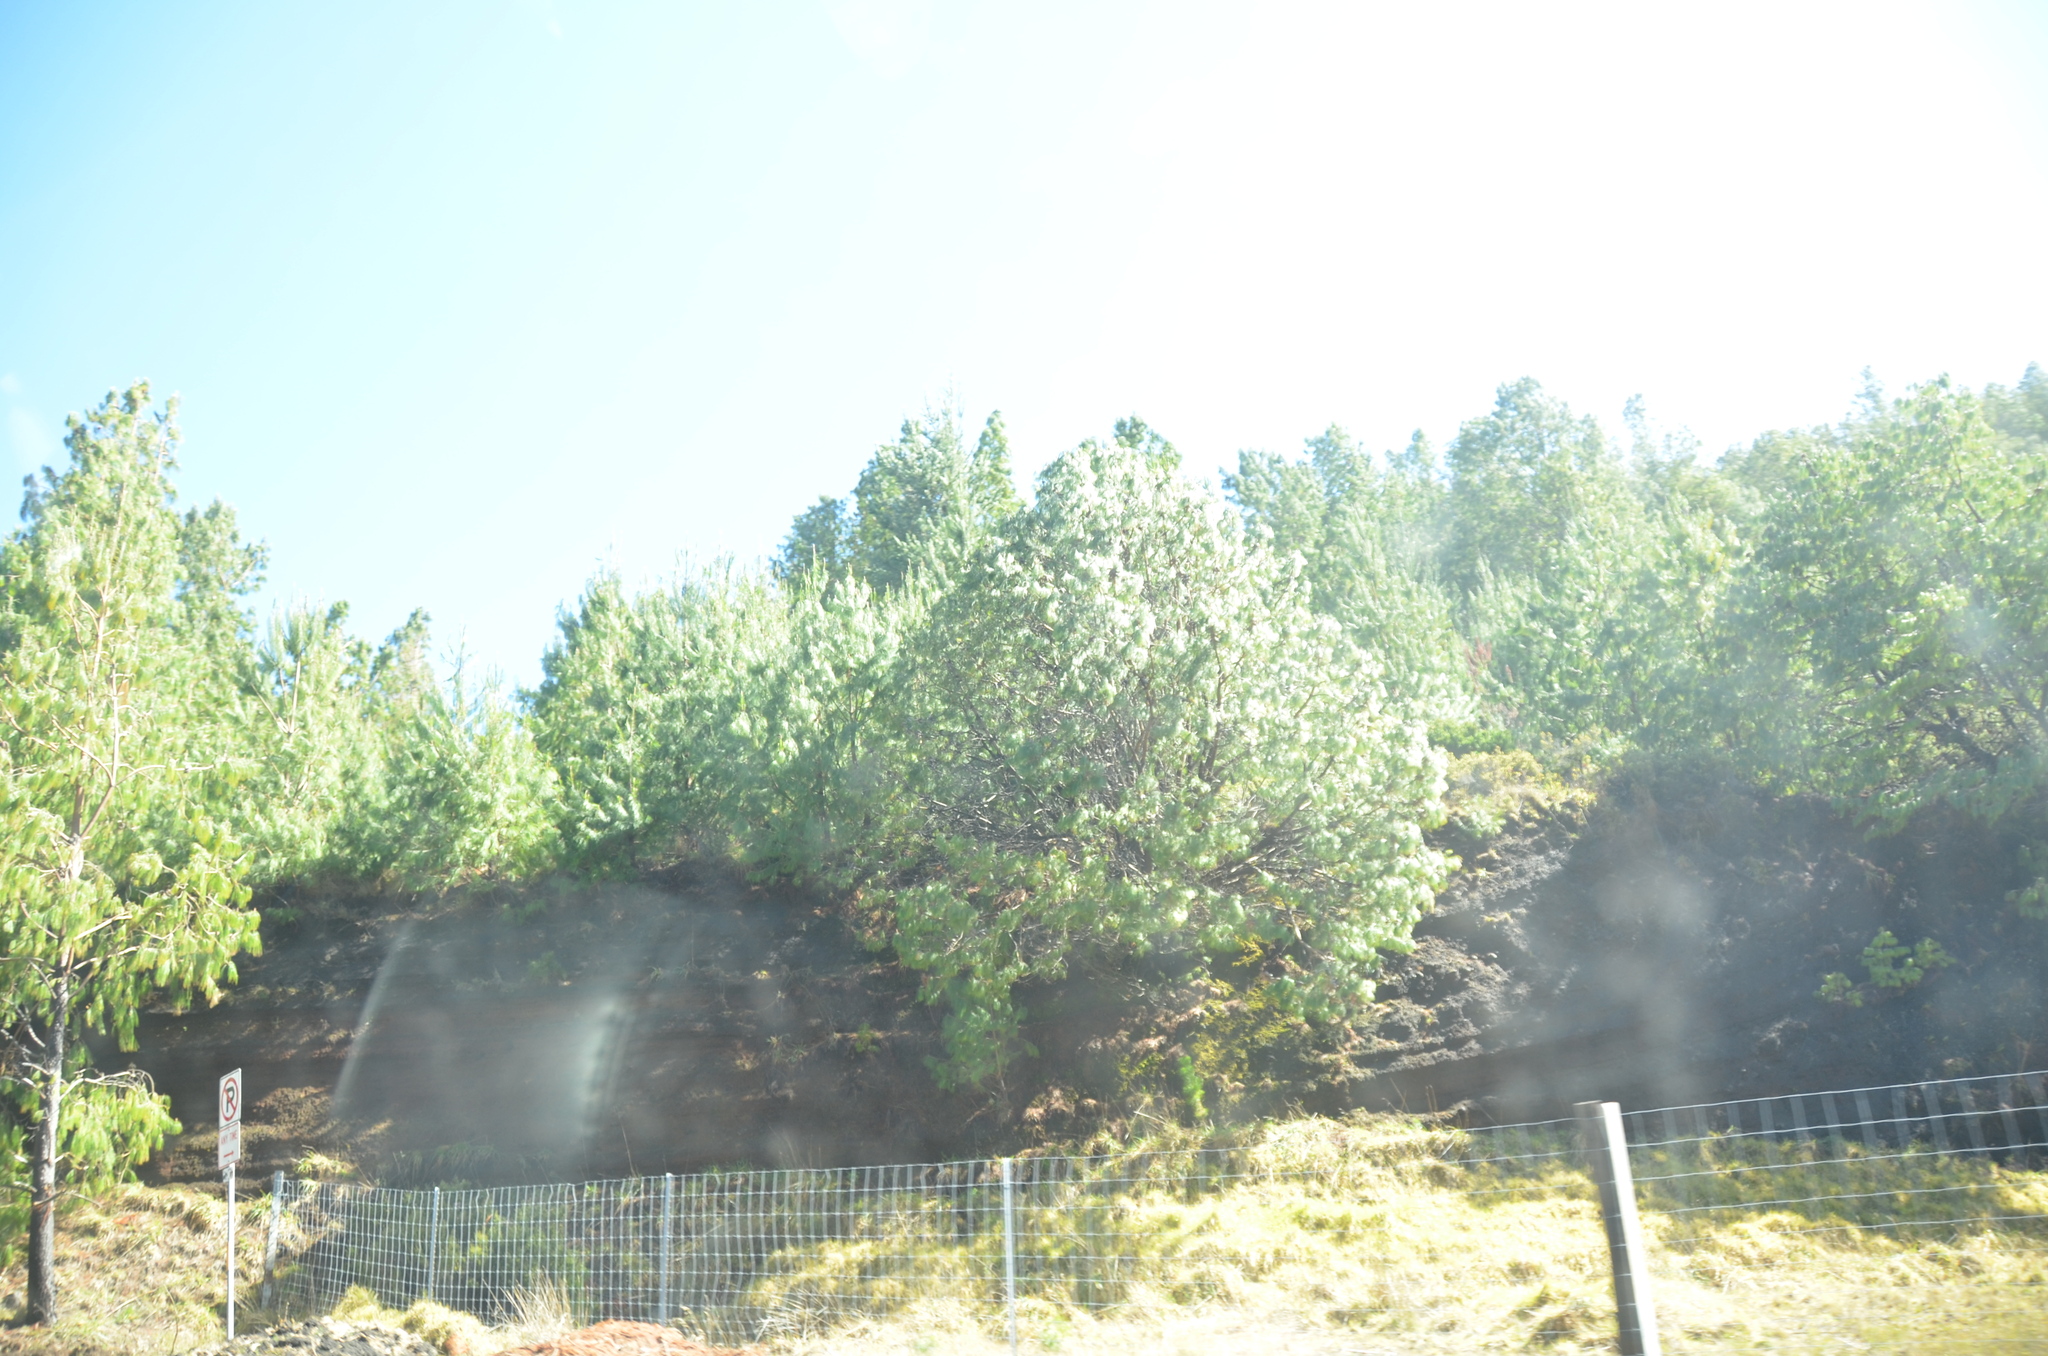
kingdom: Plantae
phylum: Tracheophyta
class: Pinopsida
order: Pinales
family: Pinaceae
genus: Pinus
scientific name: Pinus patula
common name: Mexican weeping pine
